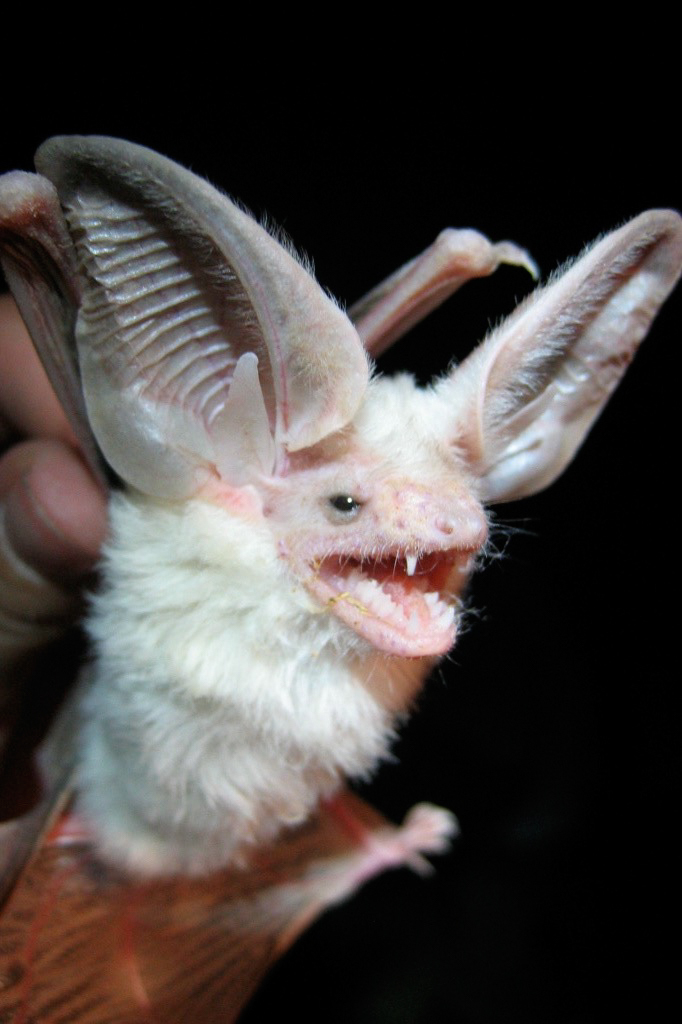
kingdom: Animalia
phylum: Chordata
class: Mammalia
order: Chiroptera
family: Vespertilionidae
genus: Otonycteris
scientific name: Otonycteris hemprichii
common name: Desert long-eared bat
